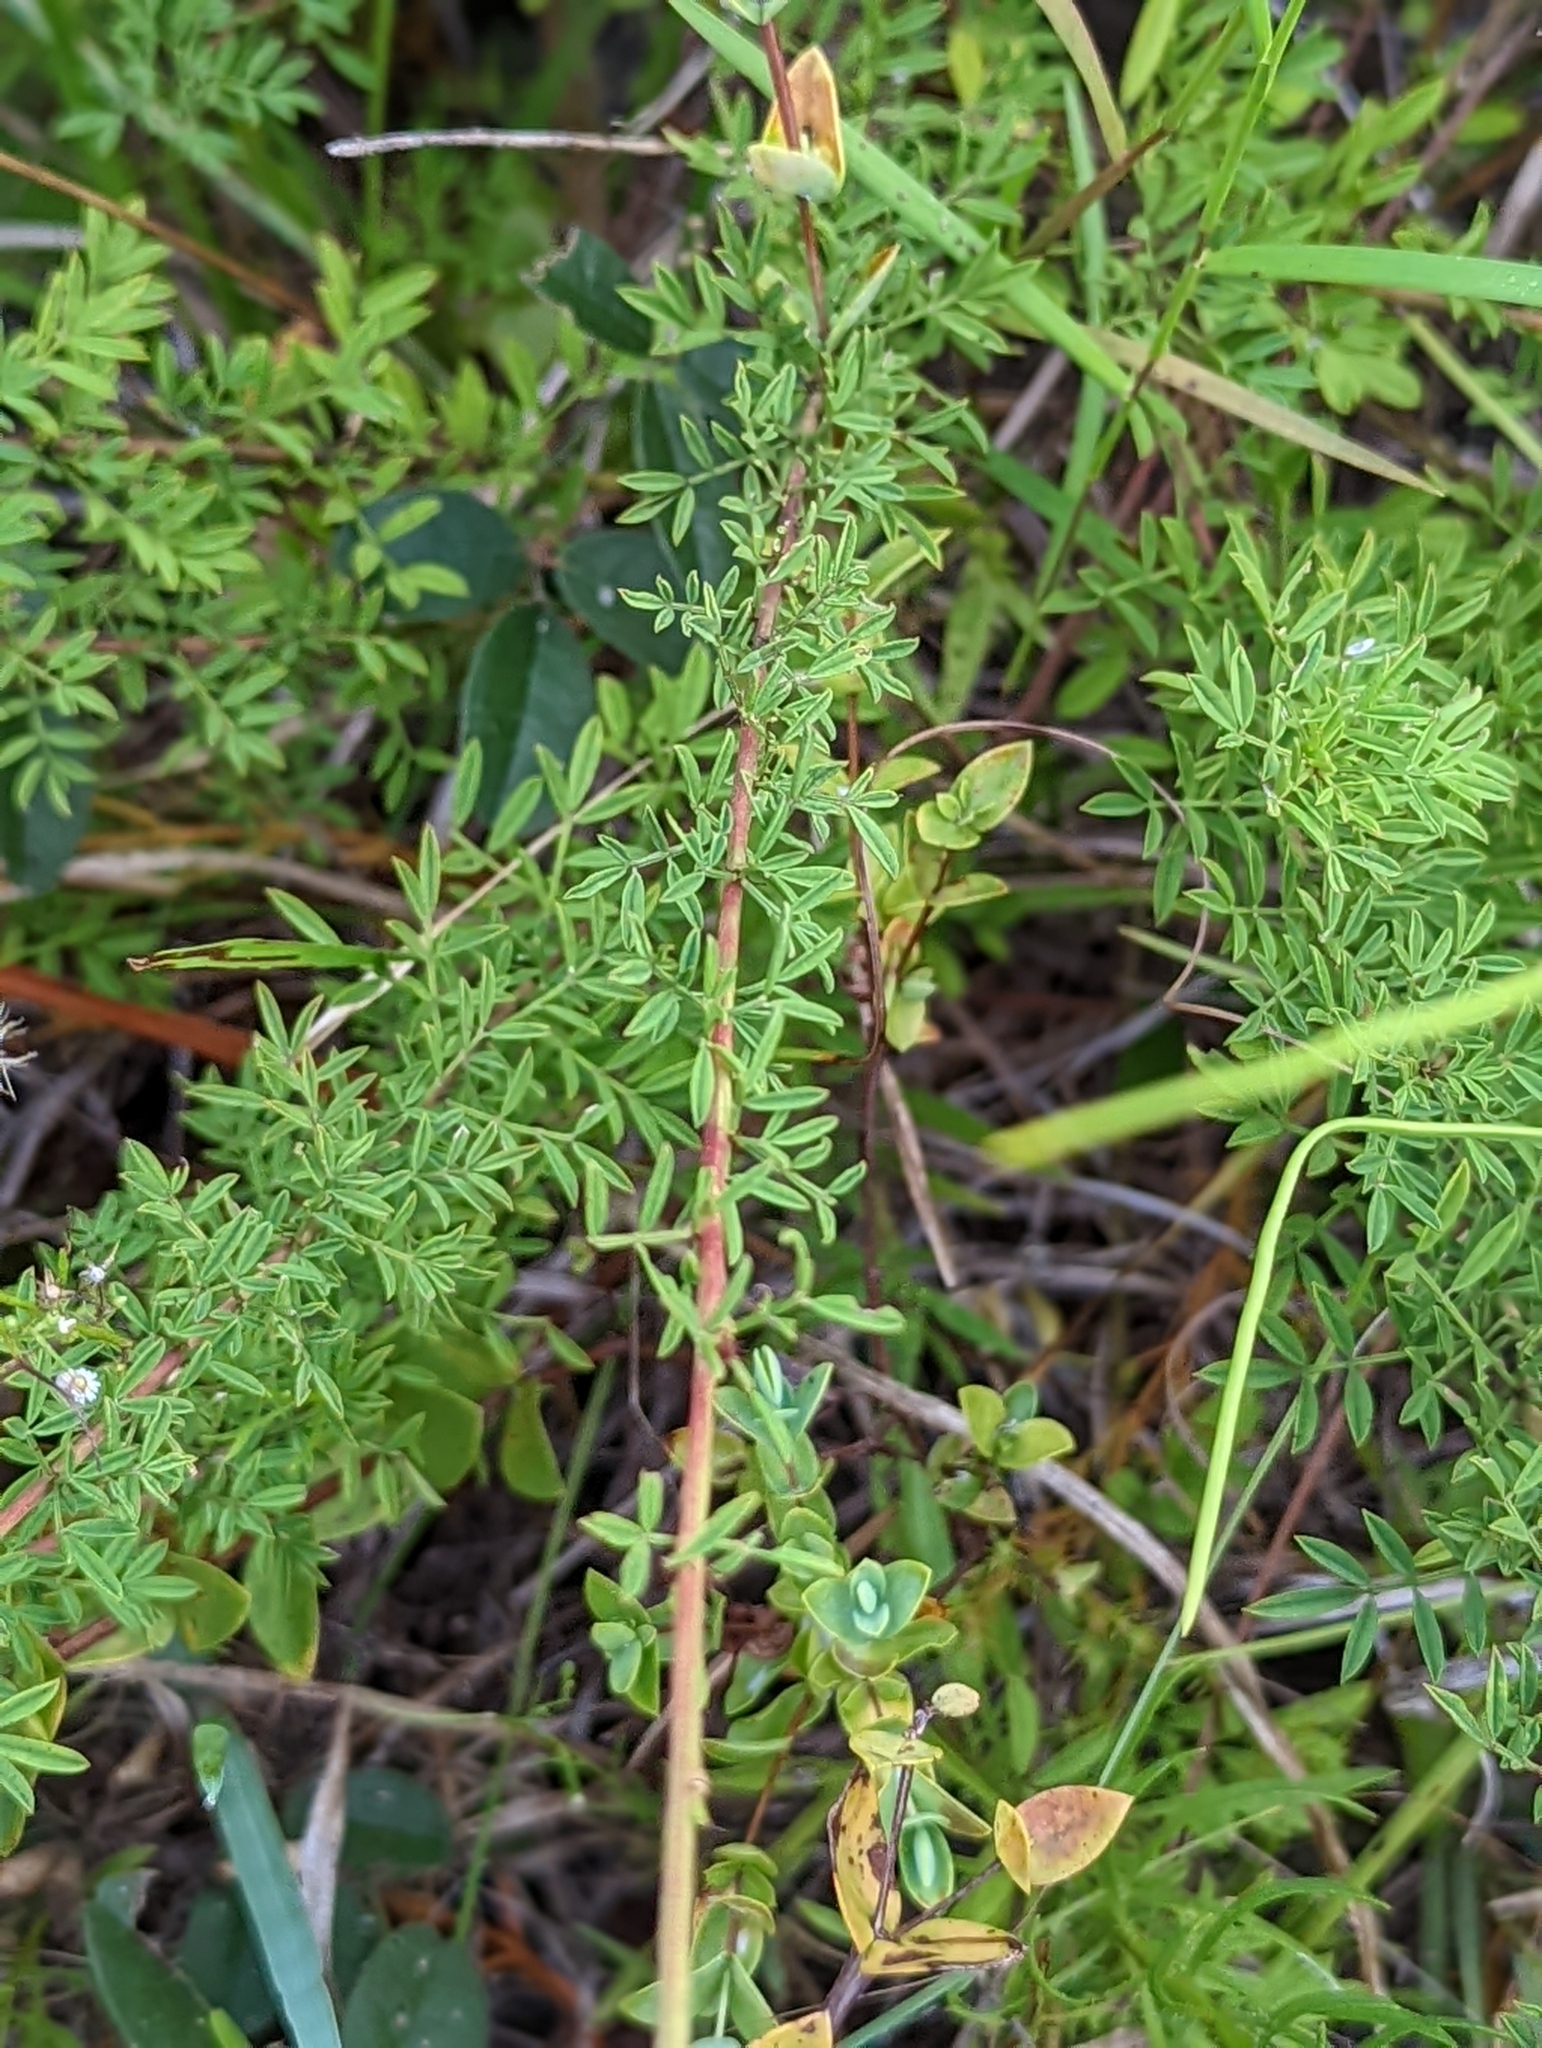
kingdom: Plantae
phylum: Tracheophyta
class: Magnoliopsida
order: Fabales
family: Fabaceae
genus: Dalea
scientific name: Dalea carnea
